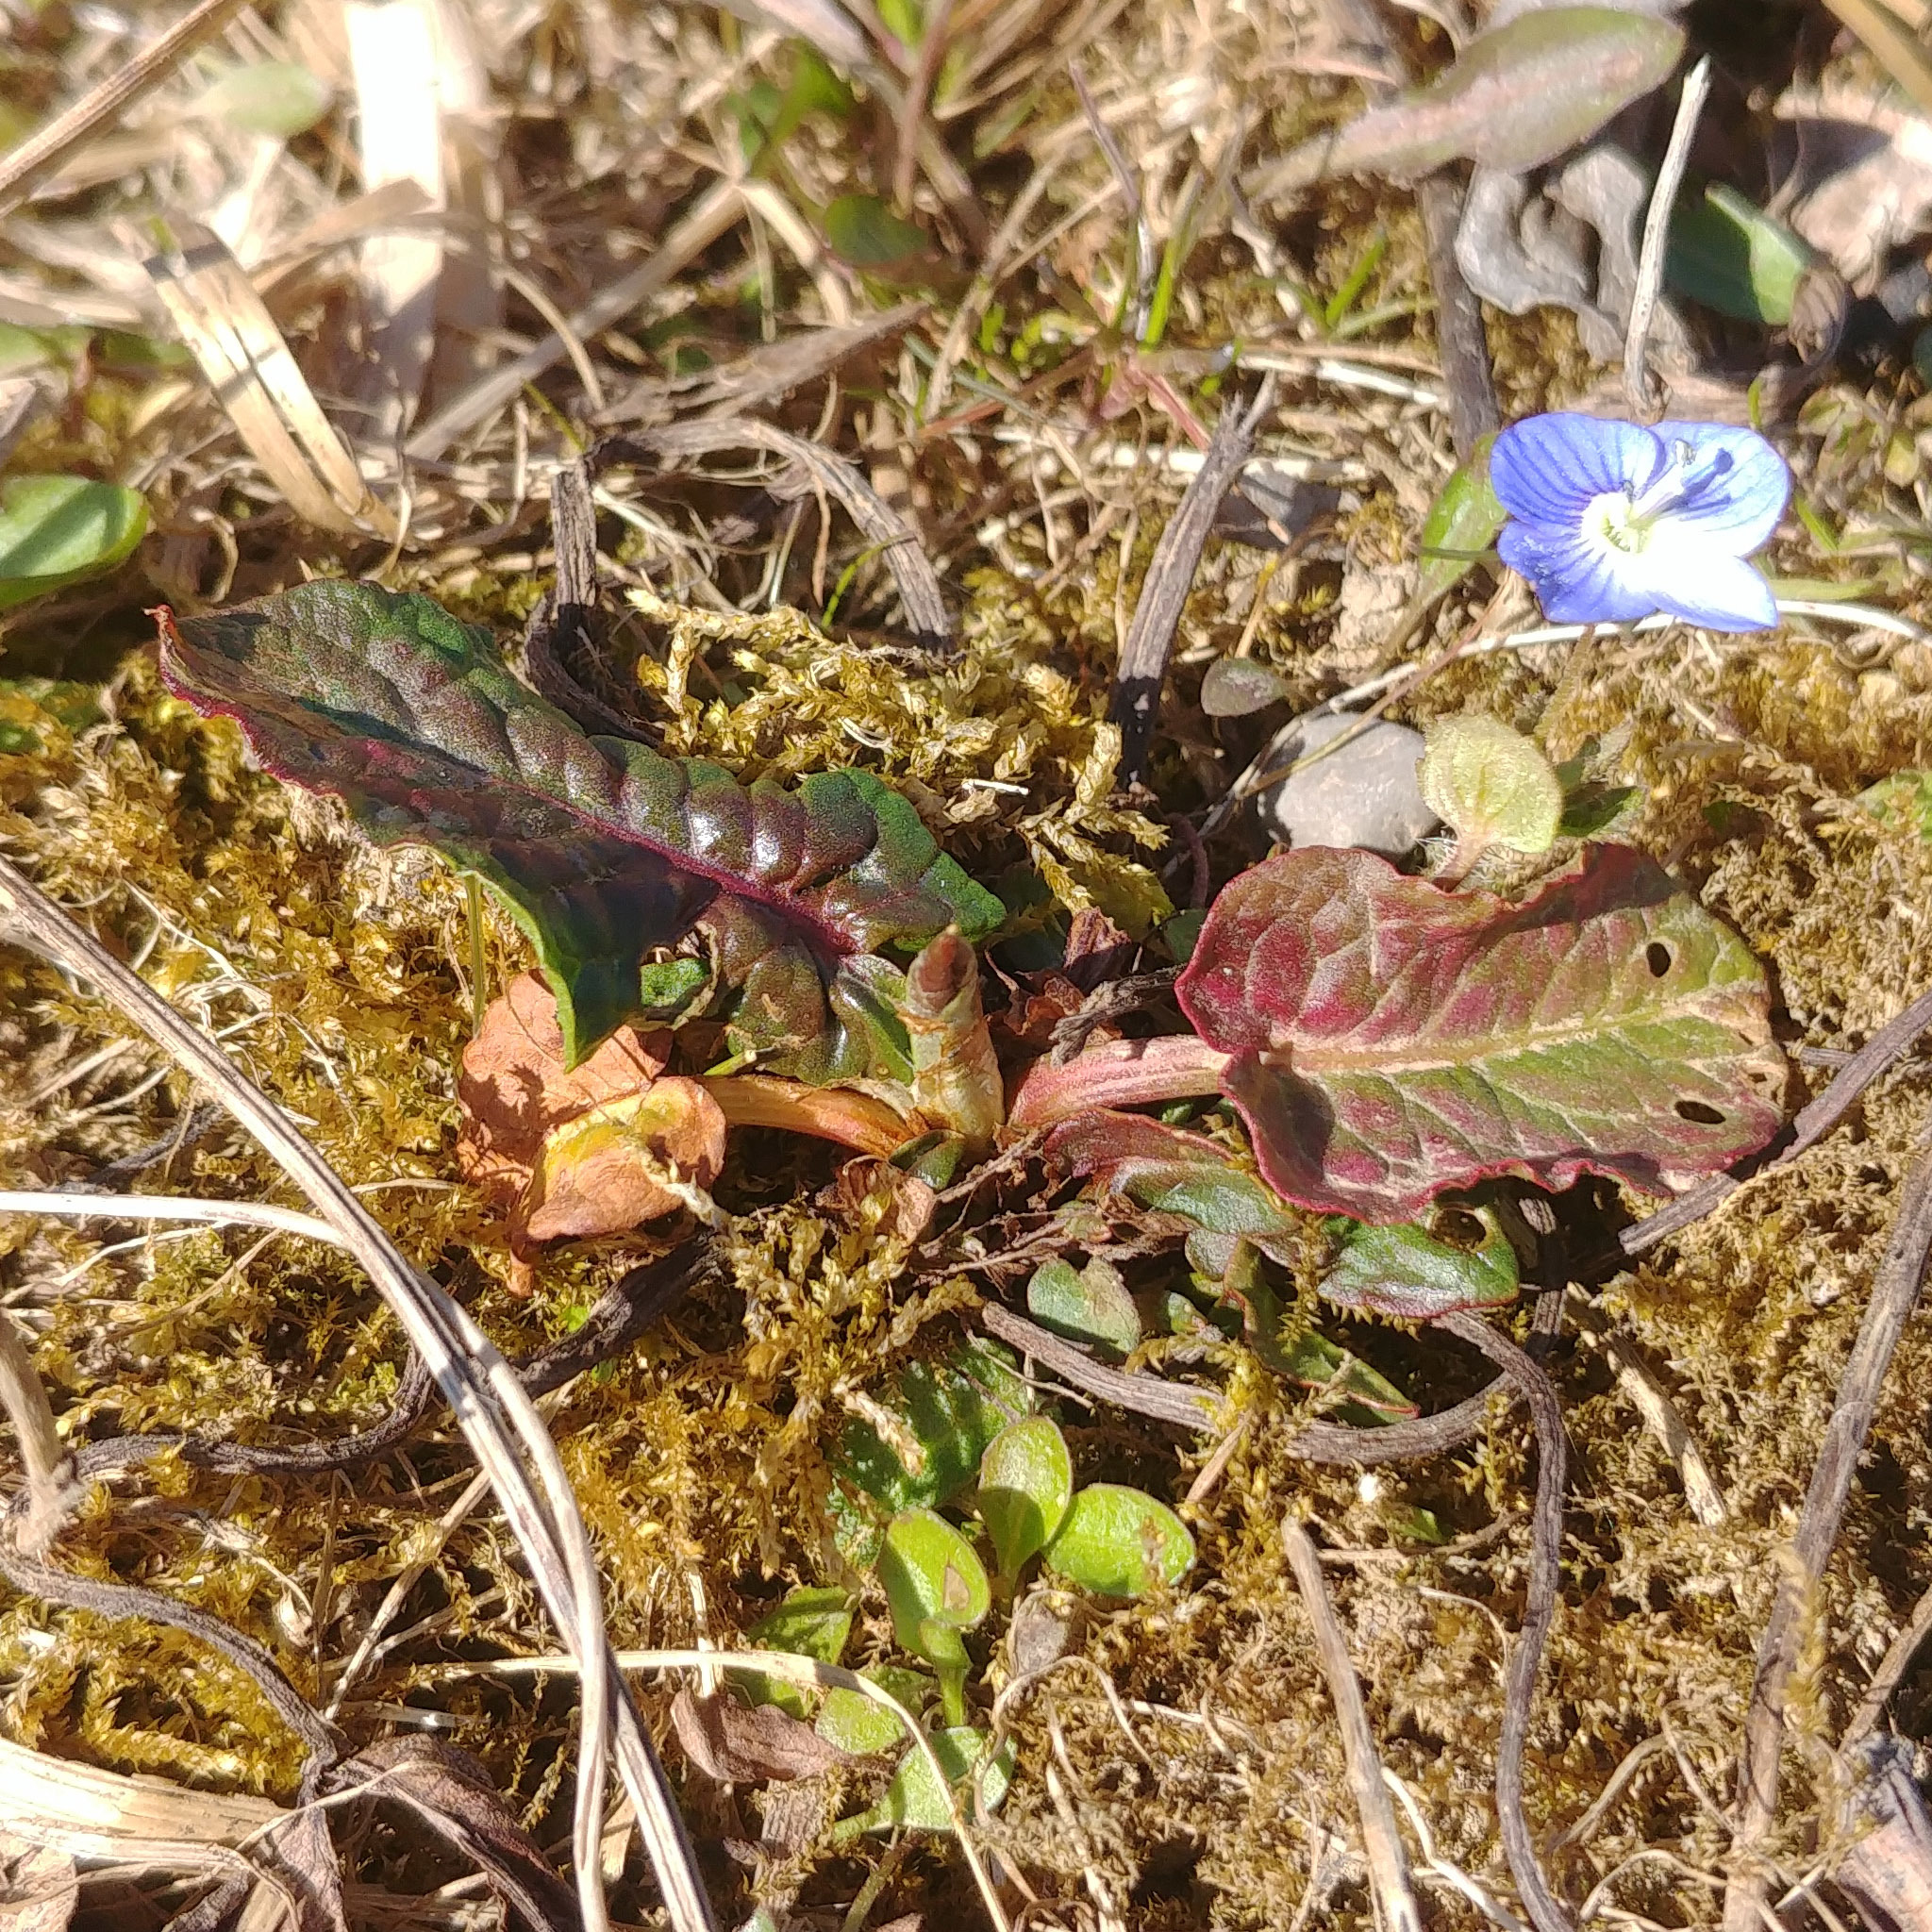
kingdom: Plantae
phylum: Tracheophyta
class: Magnoliopsida
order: Lamiales
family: Plantaginaceae
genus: Veronica
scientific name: Veronica persica
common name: Common field-speedwell
